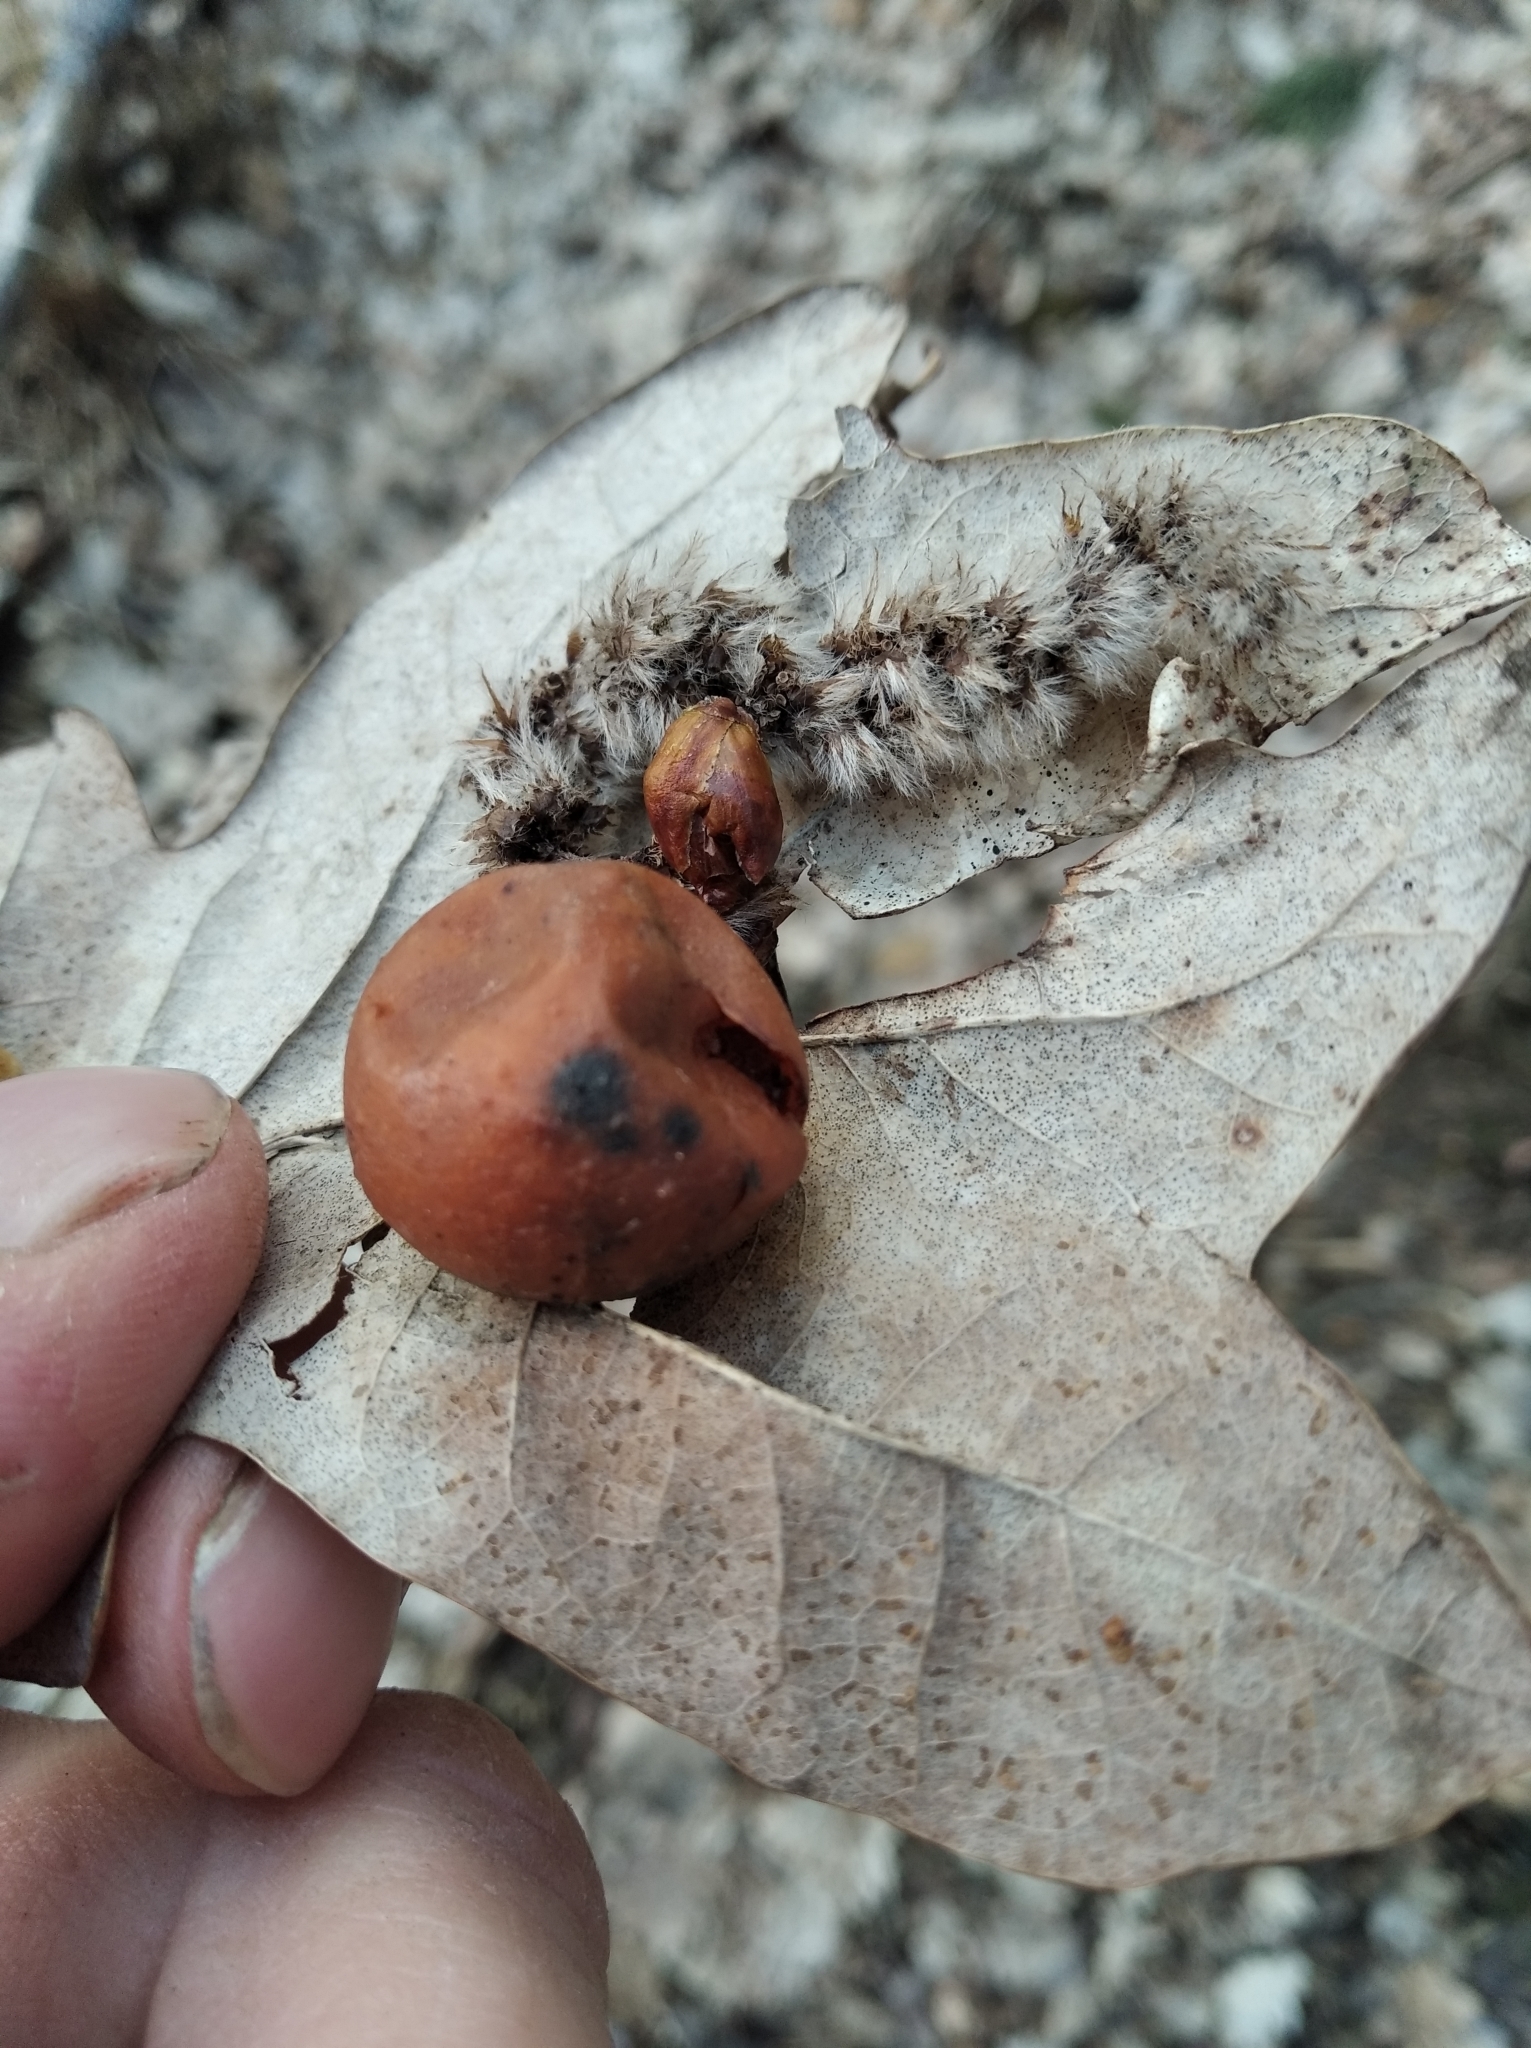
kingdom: Animalia
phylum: Arthropoda
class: Insecta
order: Hymenoptera
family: Cynipidae
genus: Cynips
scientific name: Cynips quercusfolii
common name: Cherry gall
